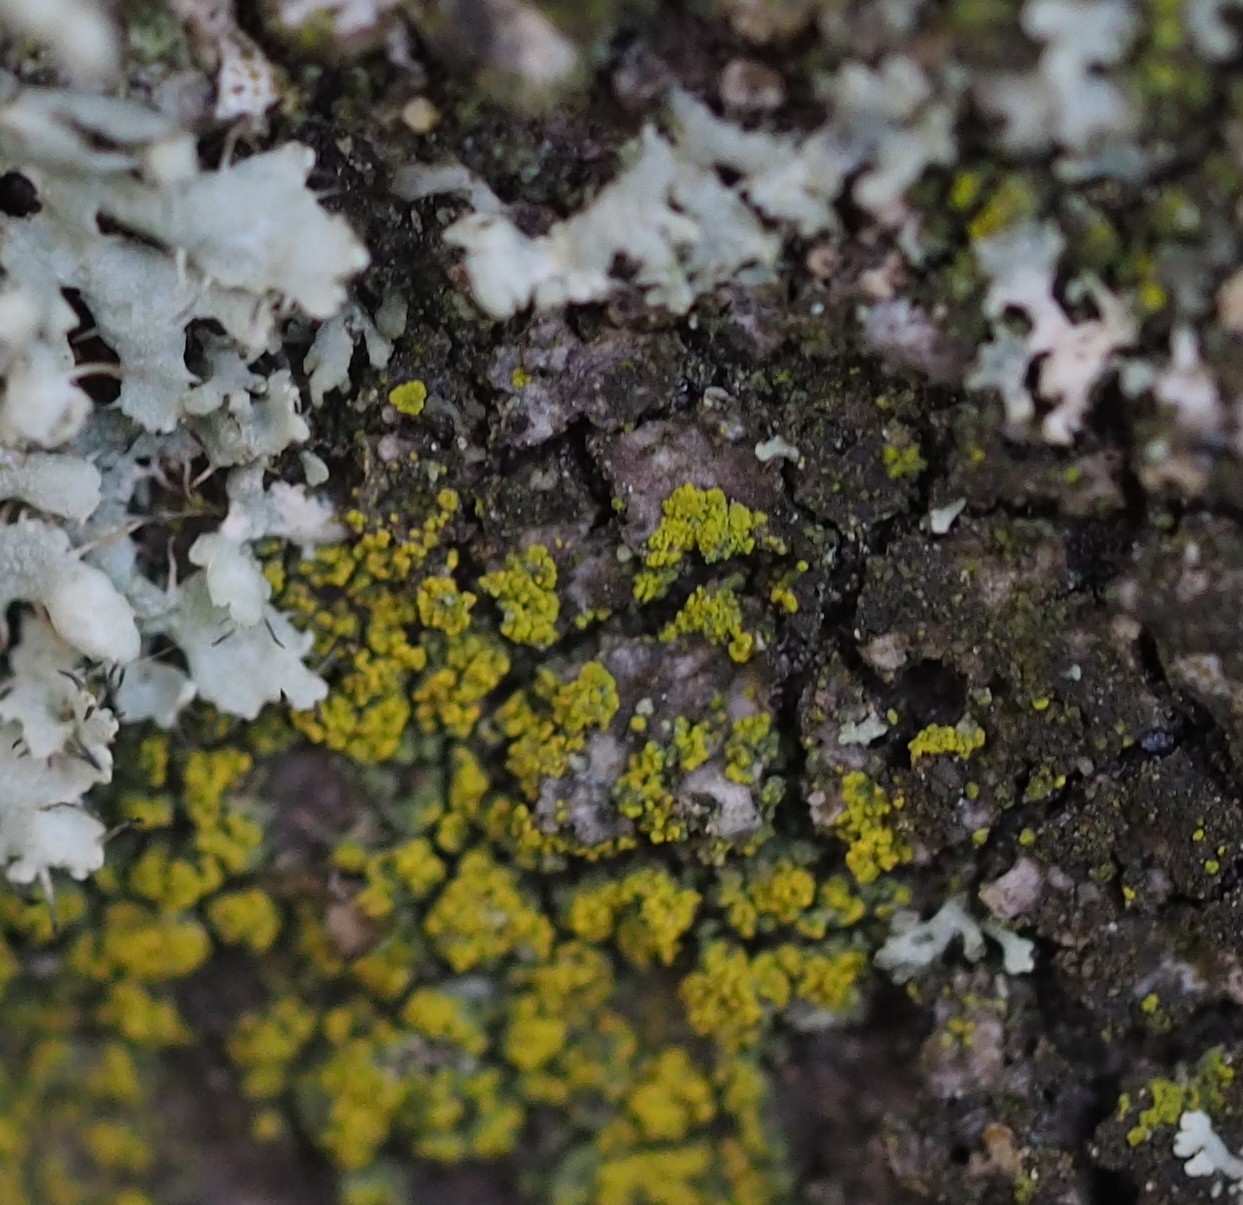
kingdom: Fungi
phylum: Ascomycota
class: Candelariomycetes
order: Candelariales
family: Candelariaceae
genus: Candelariella
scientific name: Candelariella vitellina
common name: Common goldspeck
